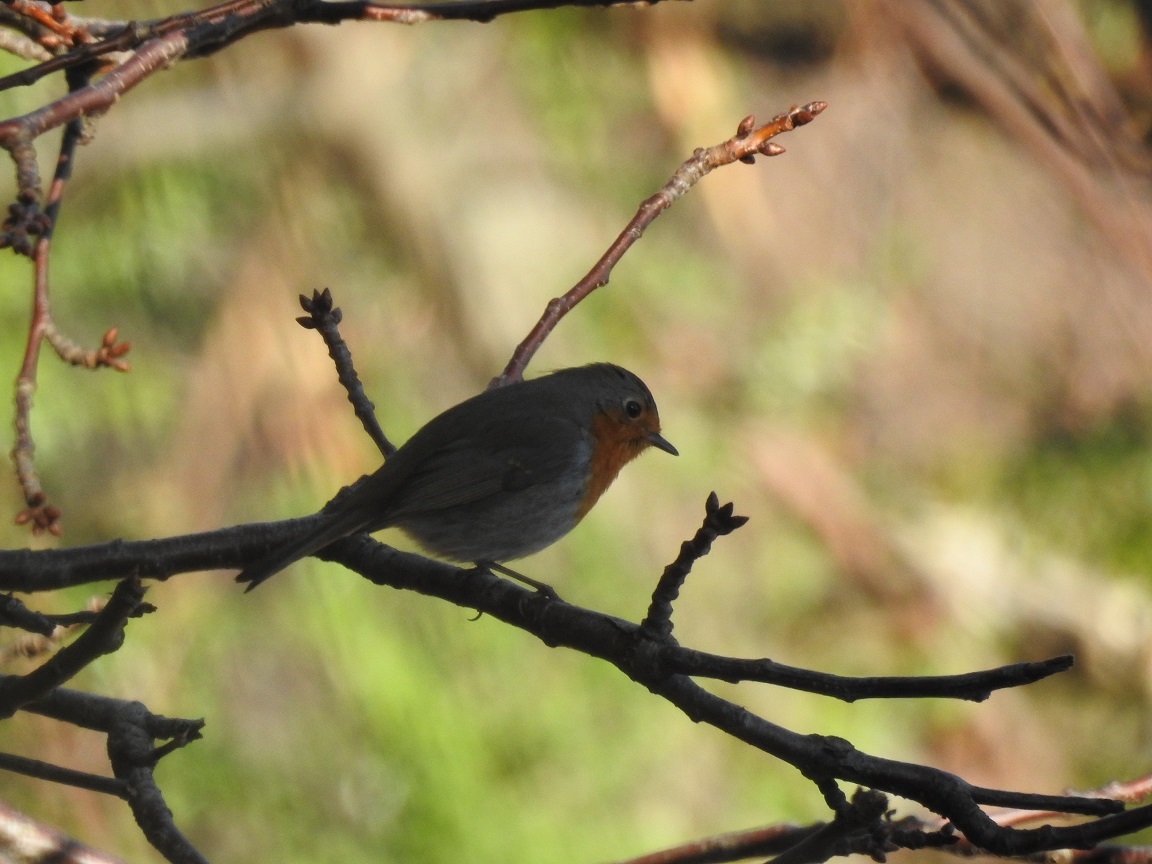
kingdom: Animalia
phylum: Chordata
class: Aves
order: Passeriformes
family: Muscicapidae
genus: Erithacus
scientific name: Erithacus rubecula
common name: European robin
